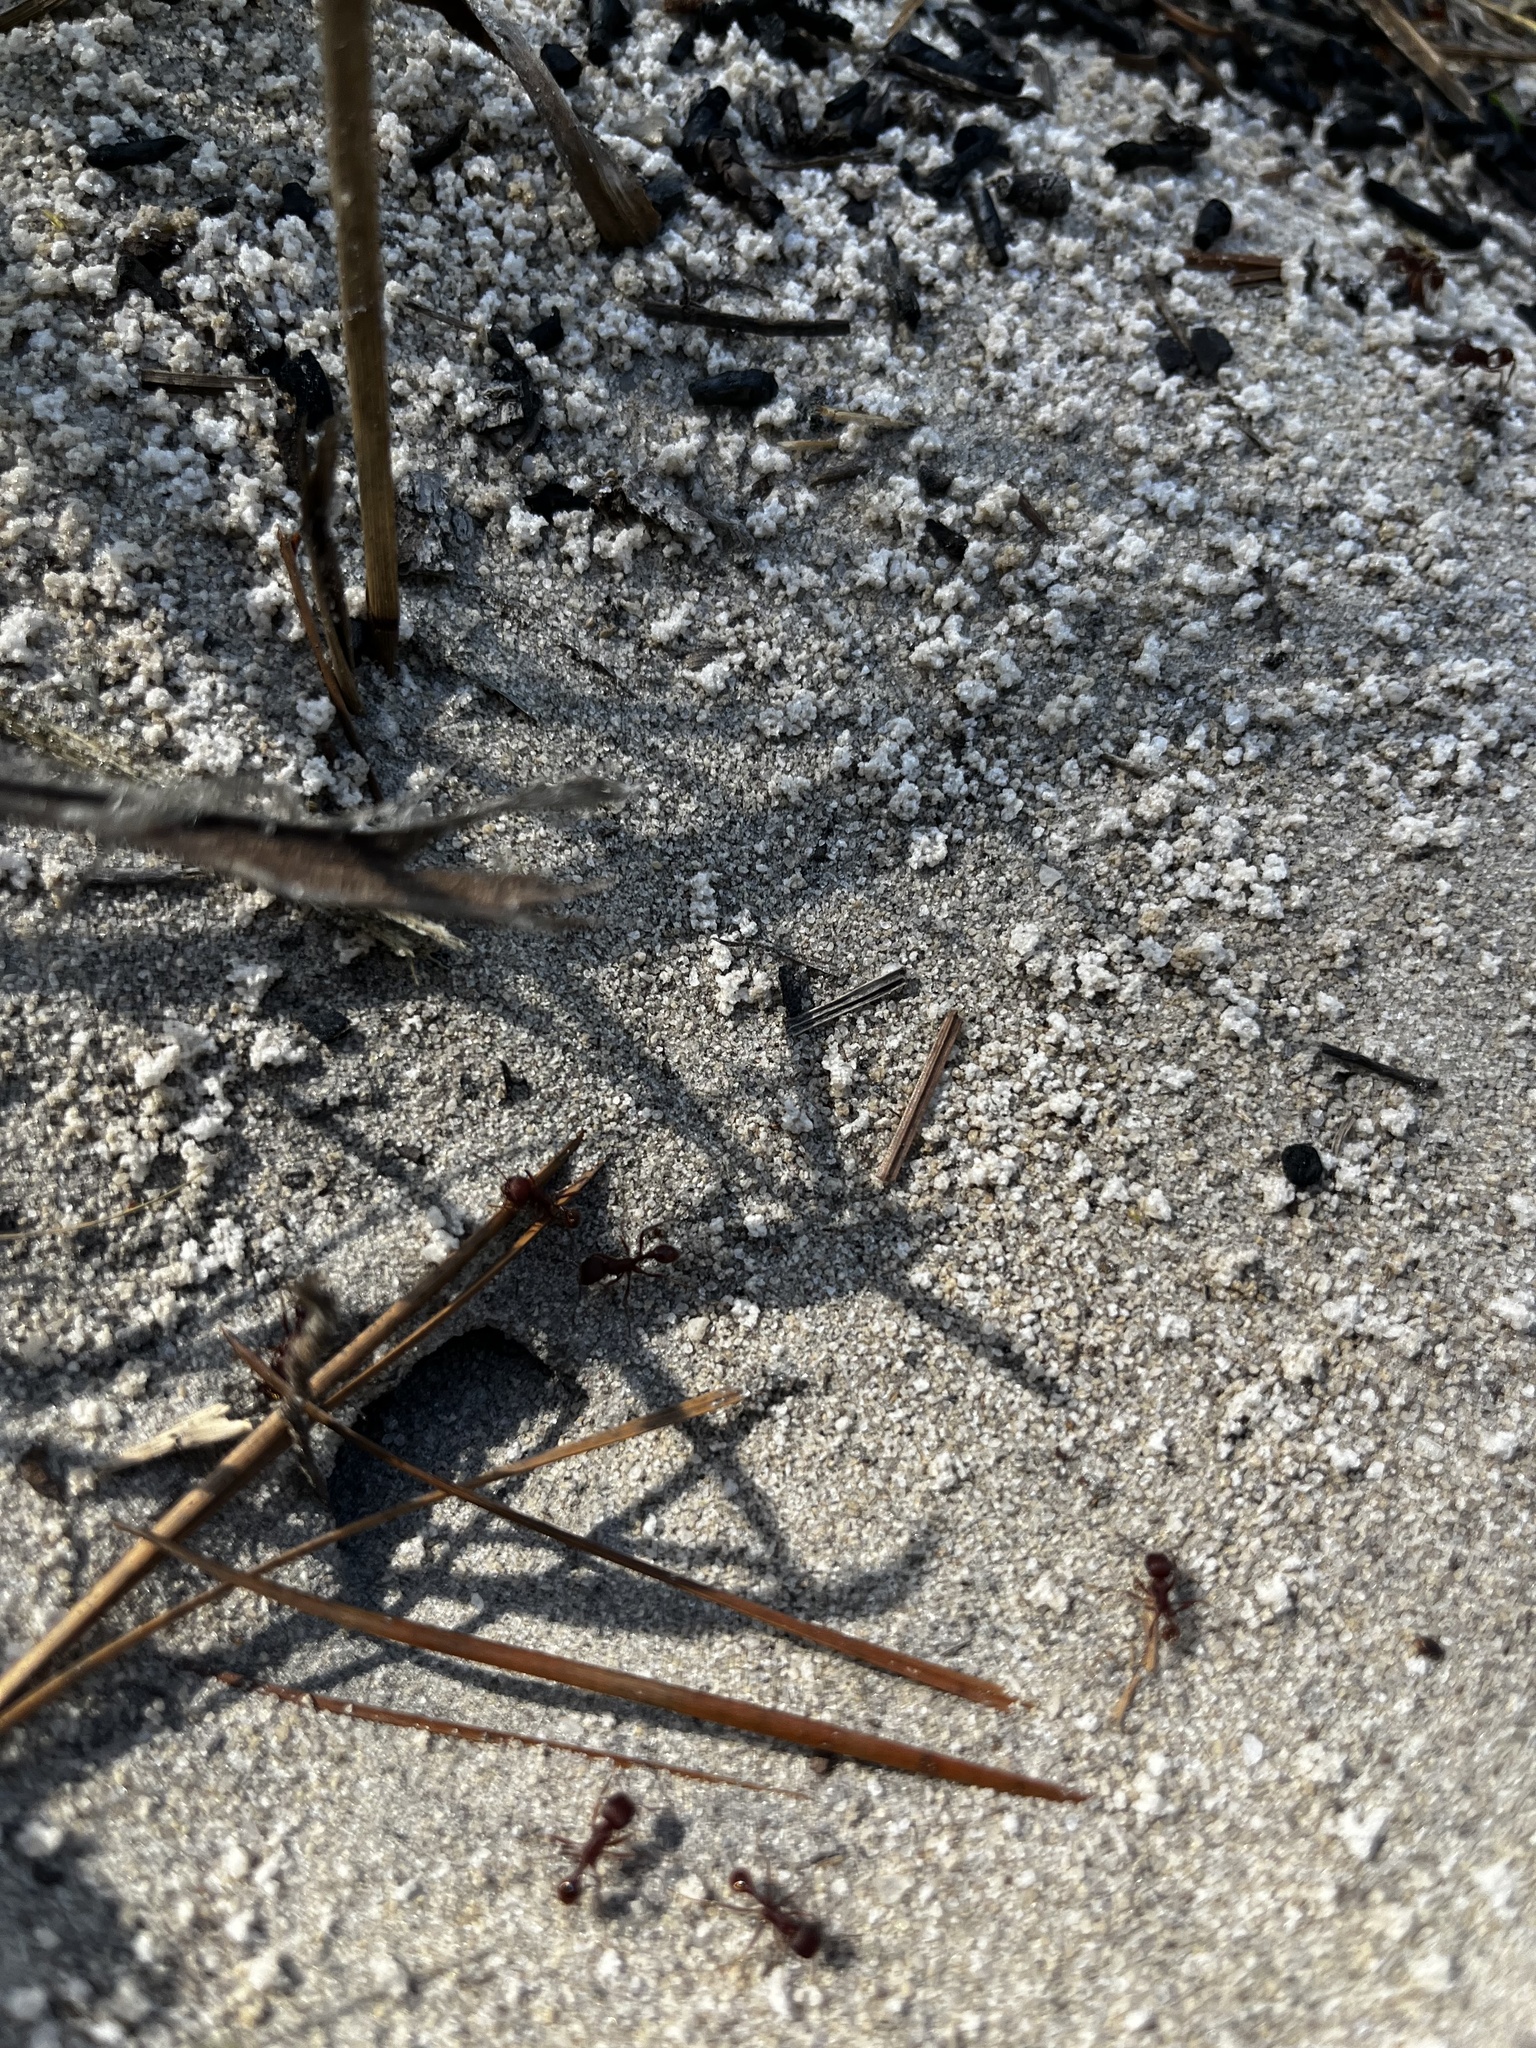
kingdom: Animalia
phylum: Arthropoda
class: Insecta
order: Hymenoptera
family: Formicidae
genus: Pogonomyrmex
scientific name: Pogonomyrmex badius
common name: Florida harvester ant
